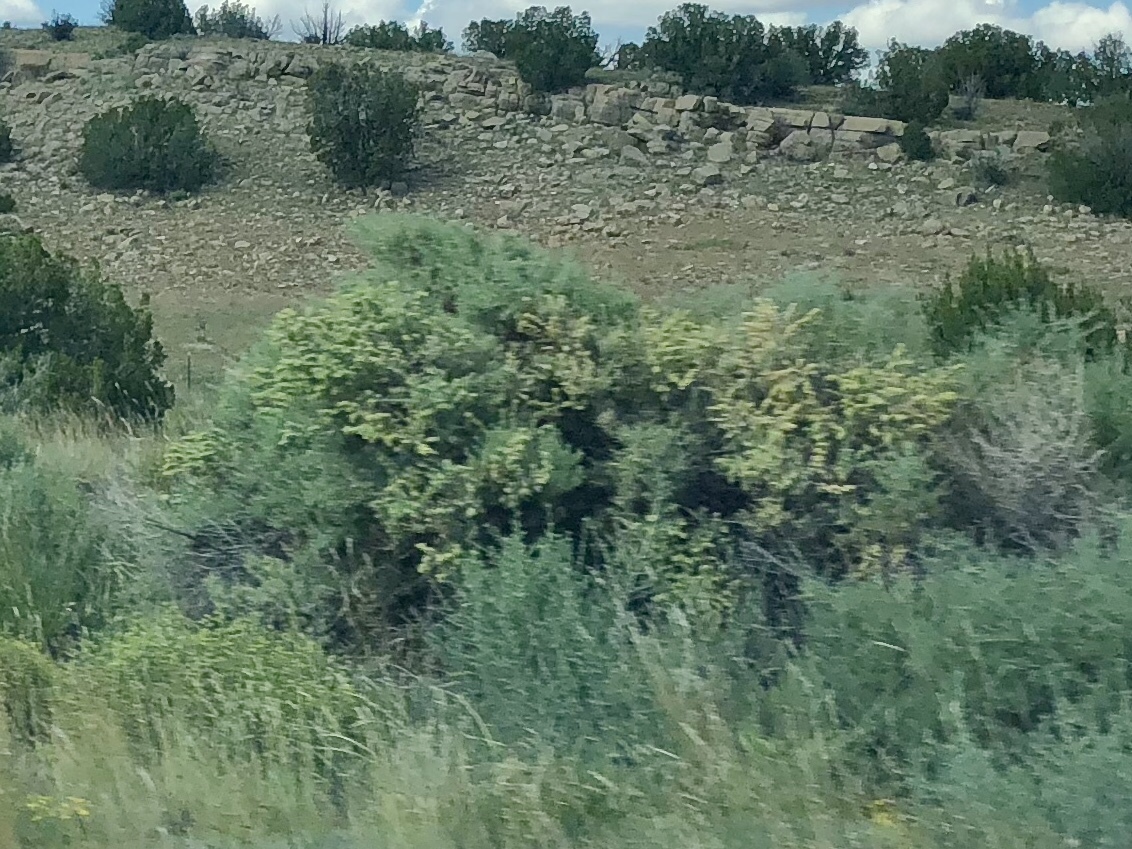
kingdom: Plantae
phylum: Tracheophyta
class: Magnoliopsida
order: Caryophyllales
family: Amaranthaceae
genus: Atriplex
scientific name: Atriplex canescens
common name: Four-wing saltbush
